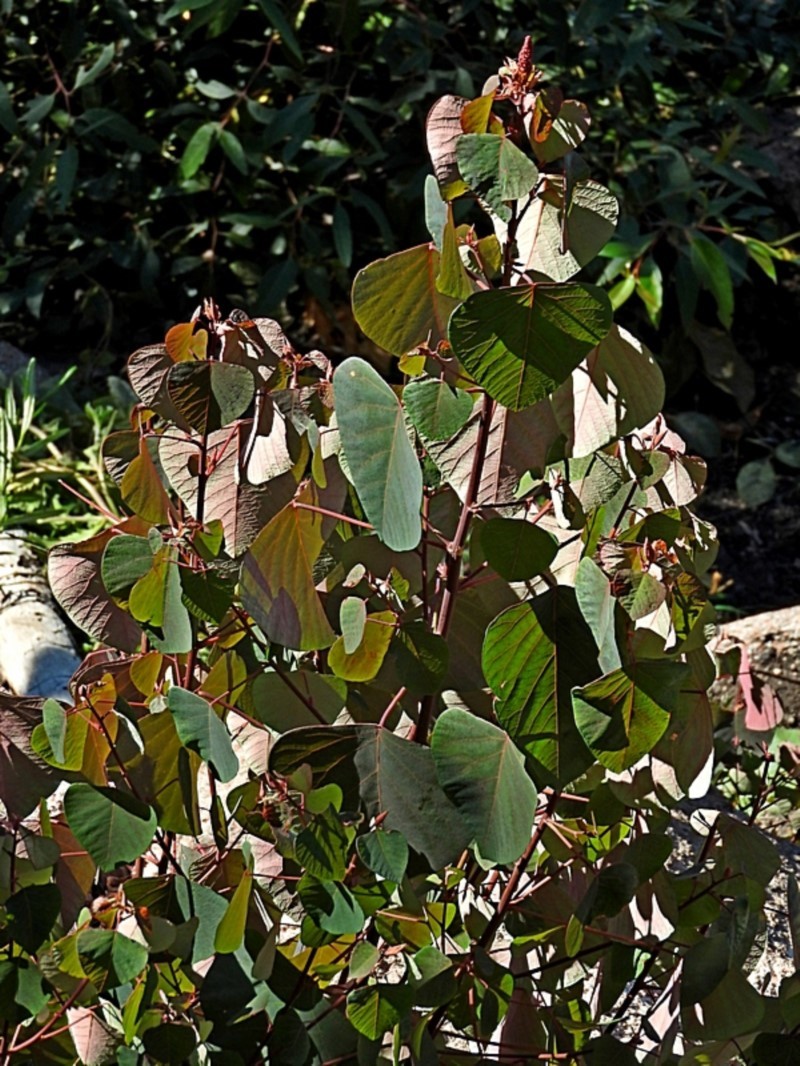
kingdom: Plantae
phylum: Tracheophyta
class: Magnoliopsida
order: Malpighiales
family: Euphorbiaceae
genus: Homalanthus
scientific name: Homalanthus stillingifolius
